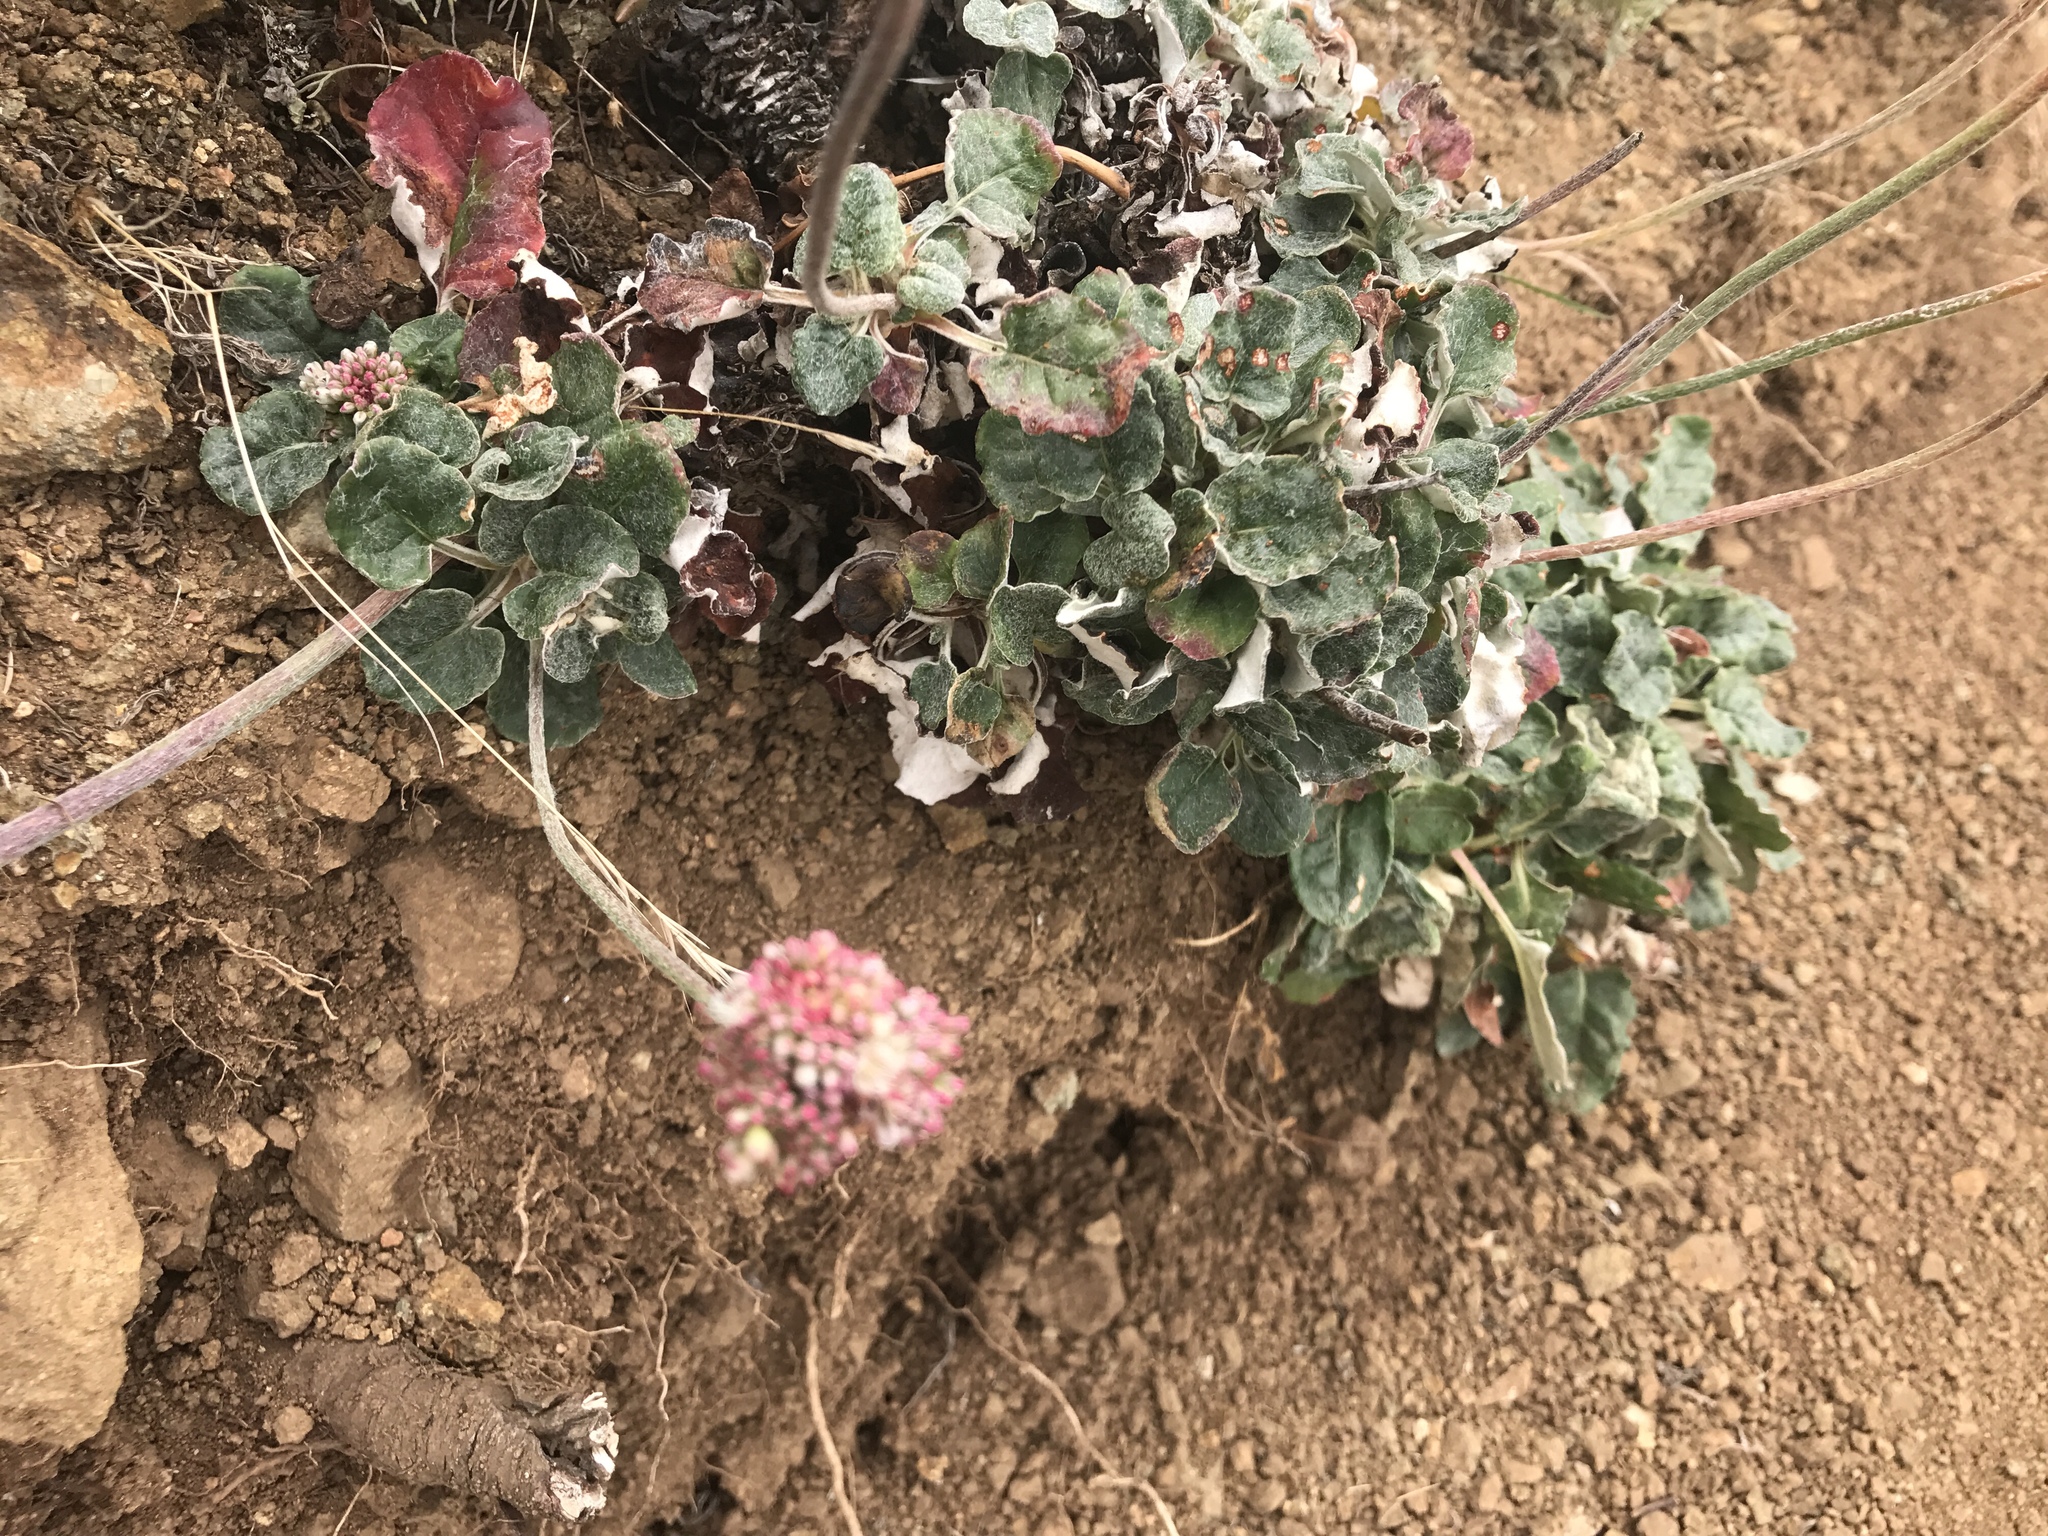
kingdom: Plantae
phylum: Tracheophyta
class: Magnoliopsida
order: Caryophyllales
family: Polygonaceae
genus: Eriogonum
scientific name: Eriogonum latifolium
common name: Seaside wild buckwheat
